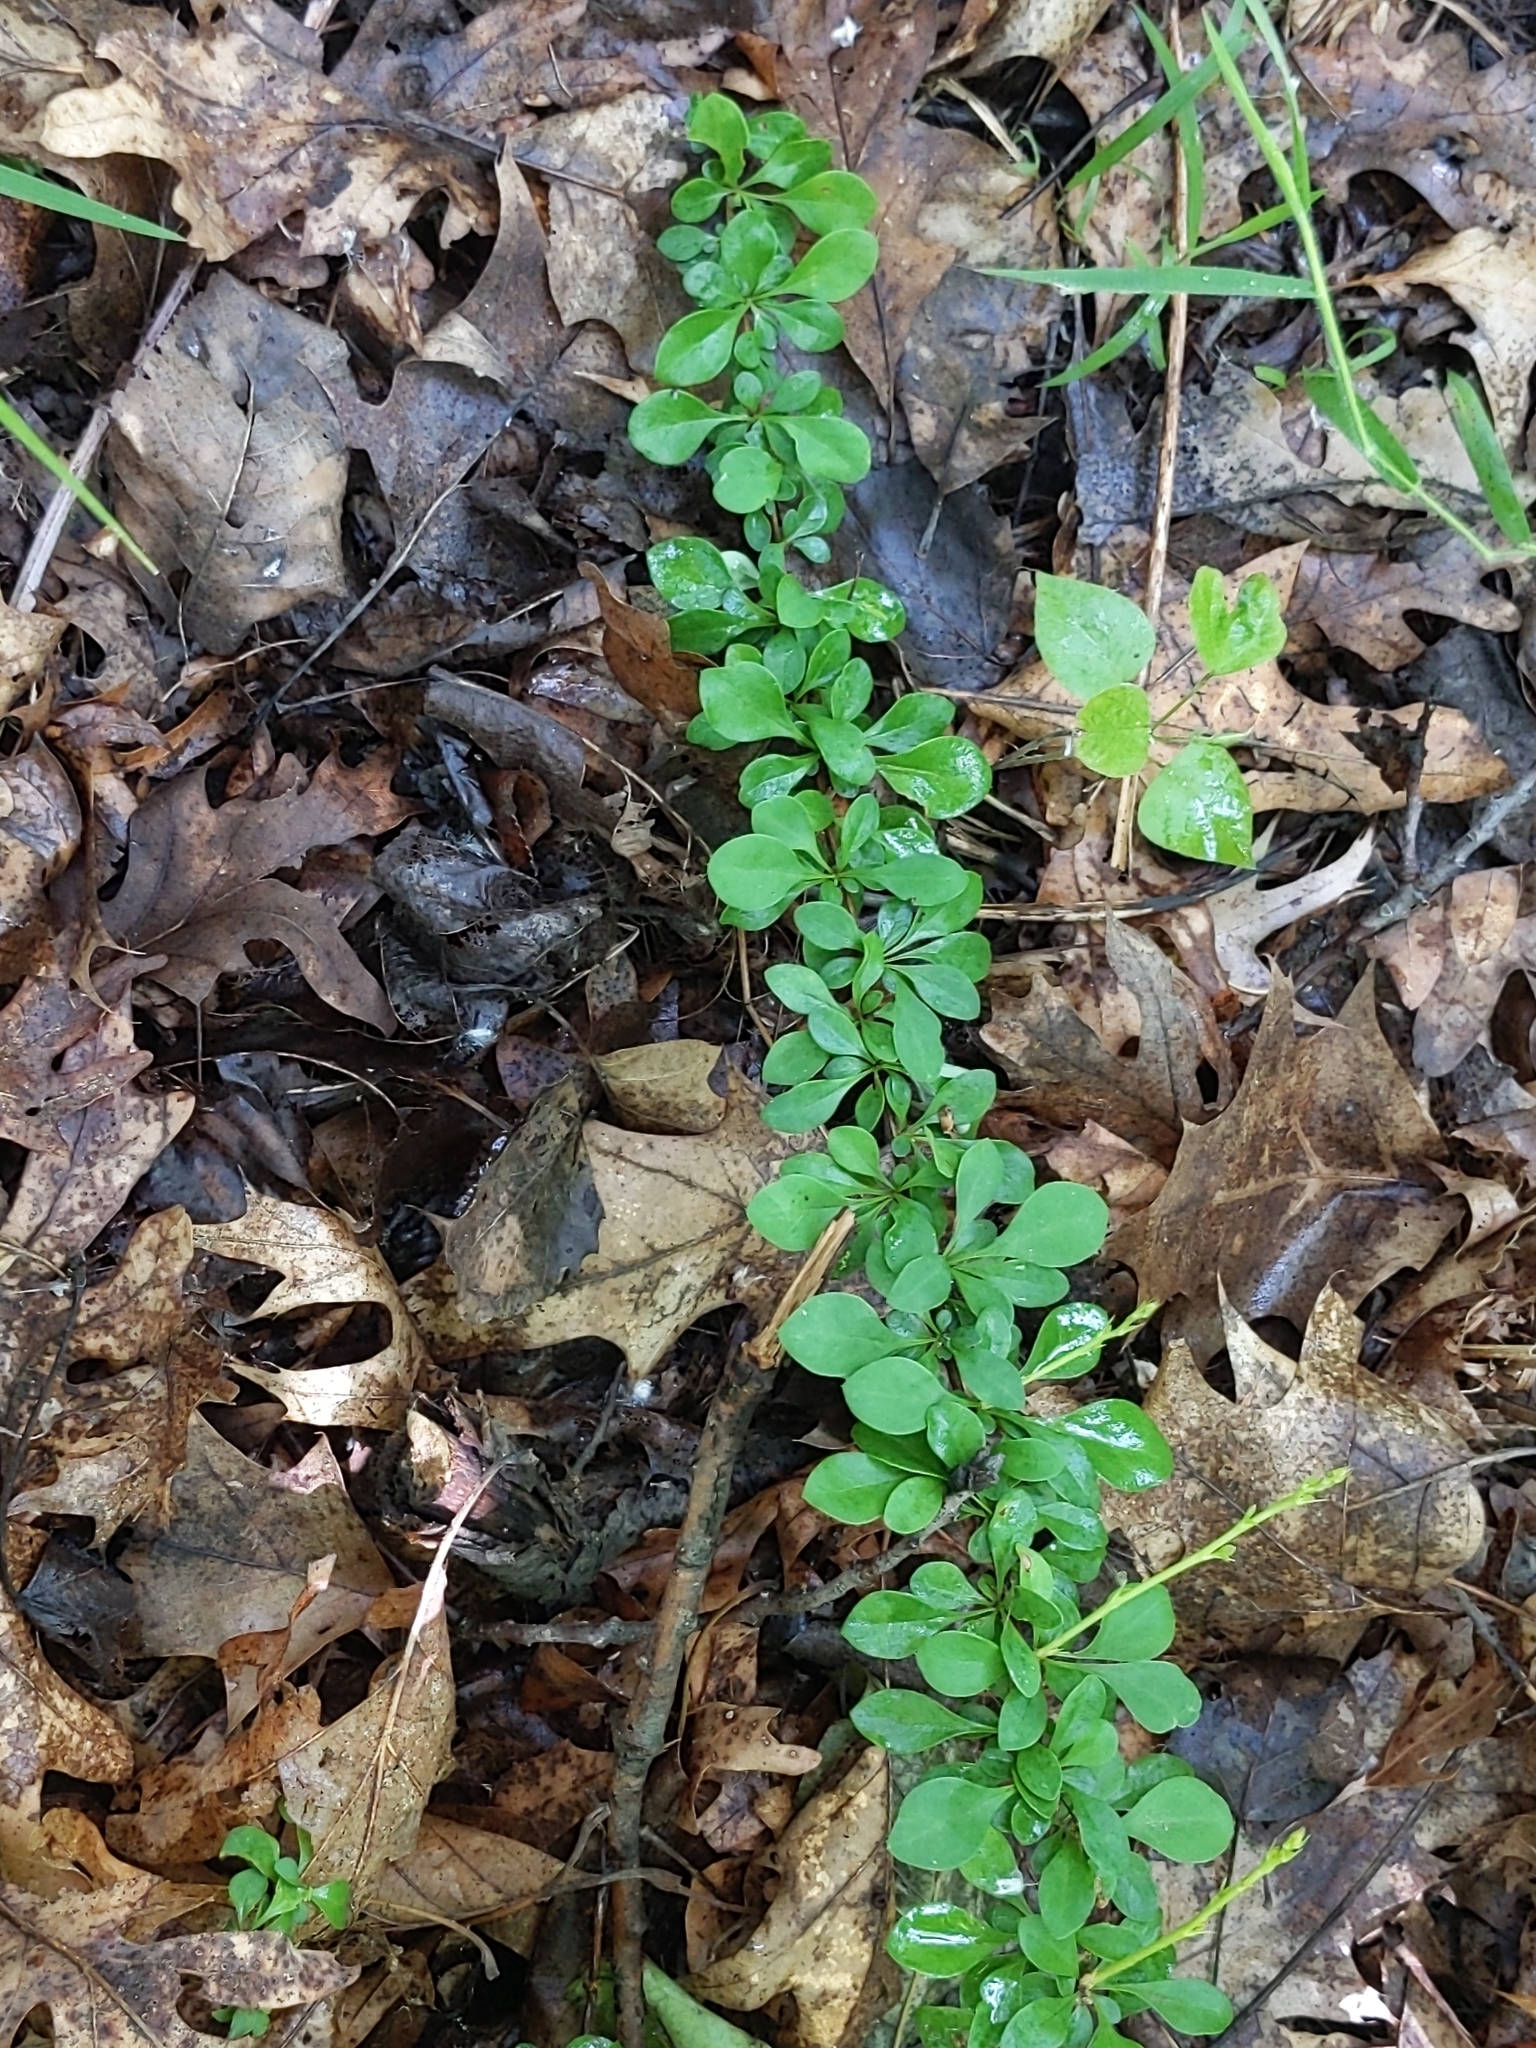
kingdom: Plantae
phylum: Tracheophyta
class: Magnoliopsida
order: Ranunculales
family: Berberidaceae
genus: Berberis
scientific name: Berberis thunbergii
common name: Japanese barberry
